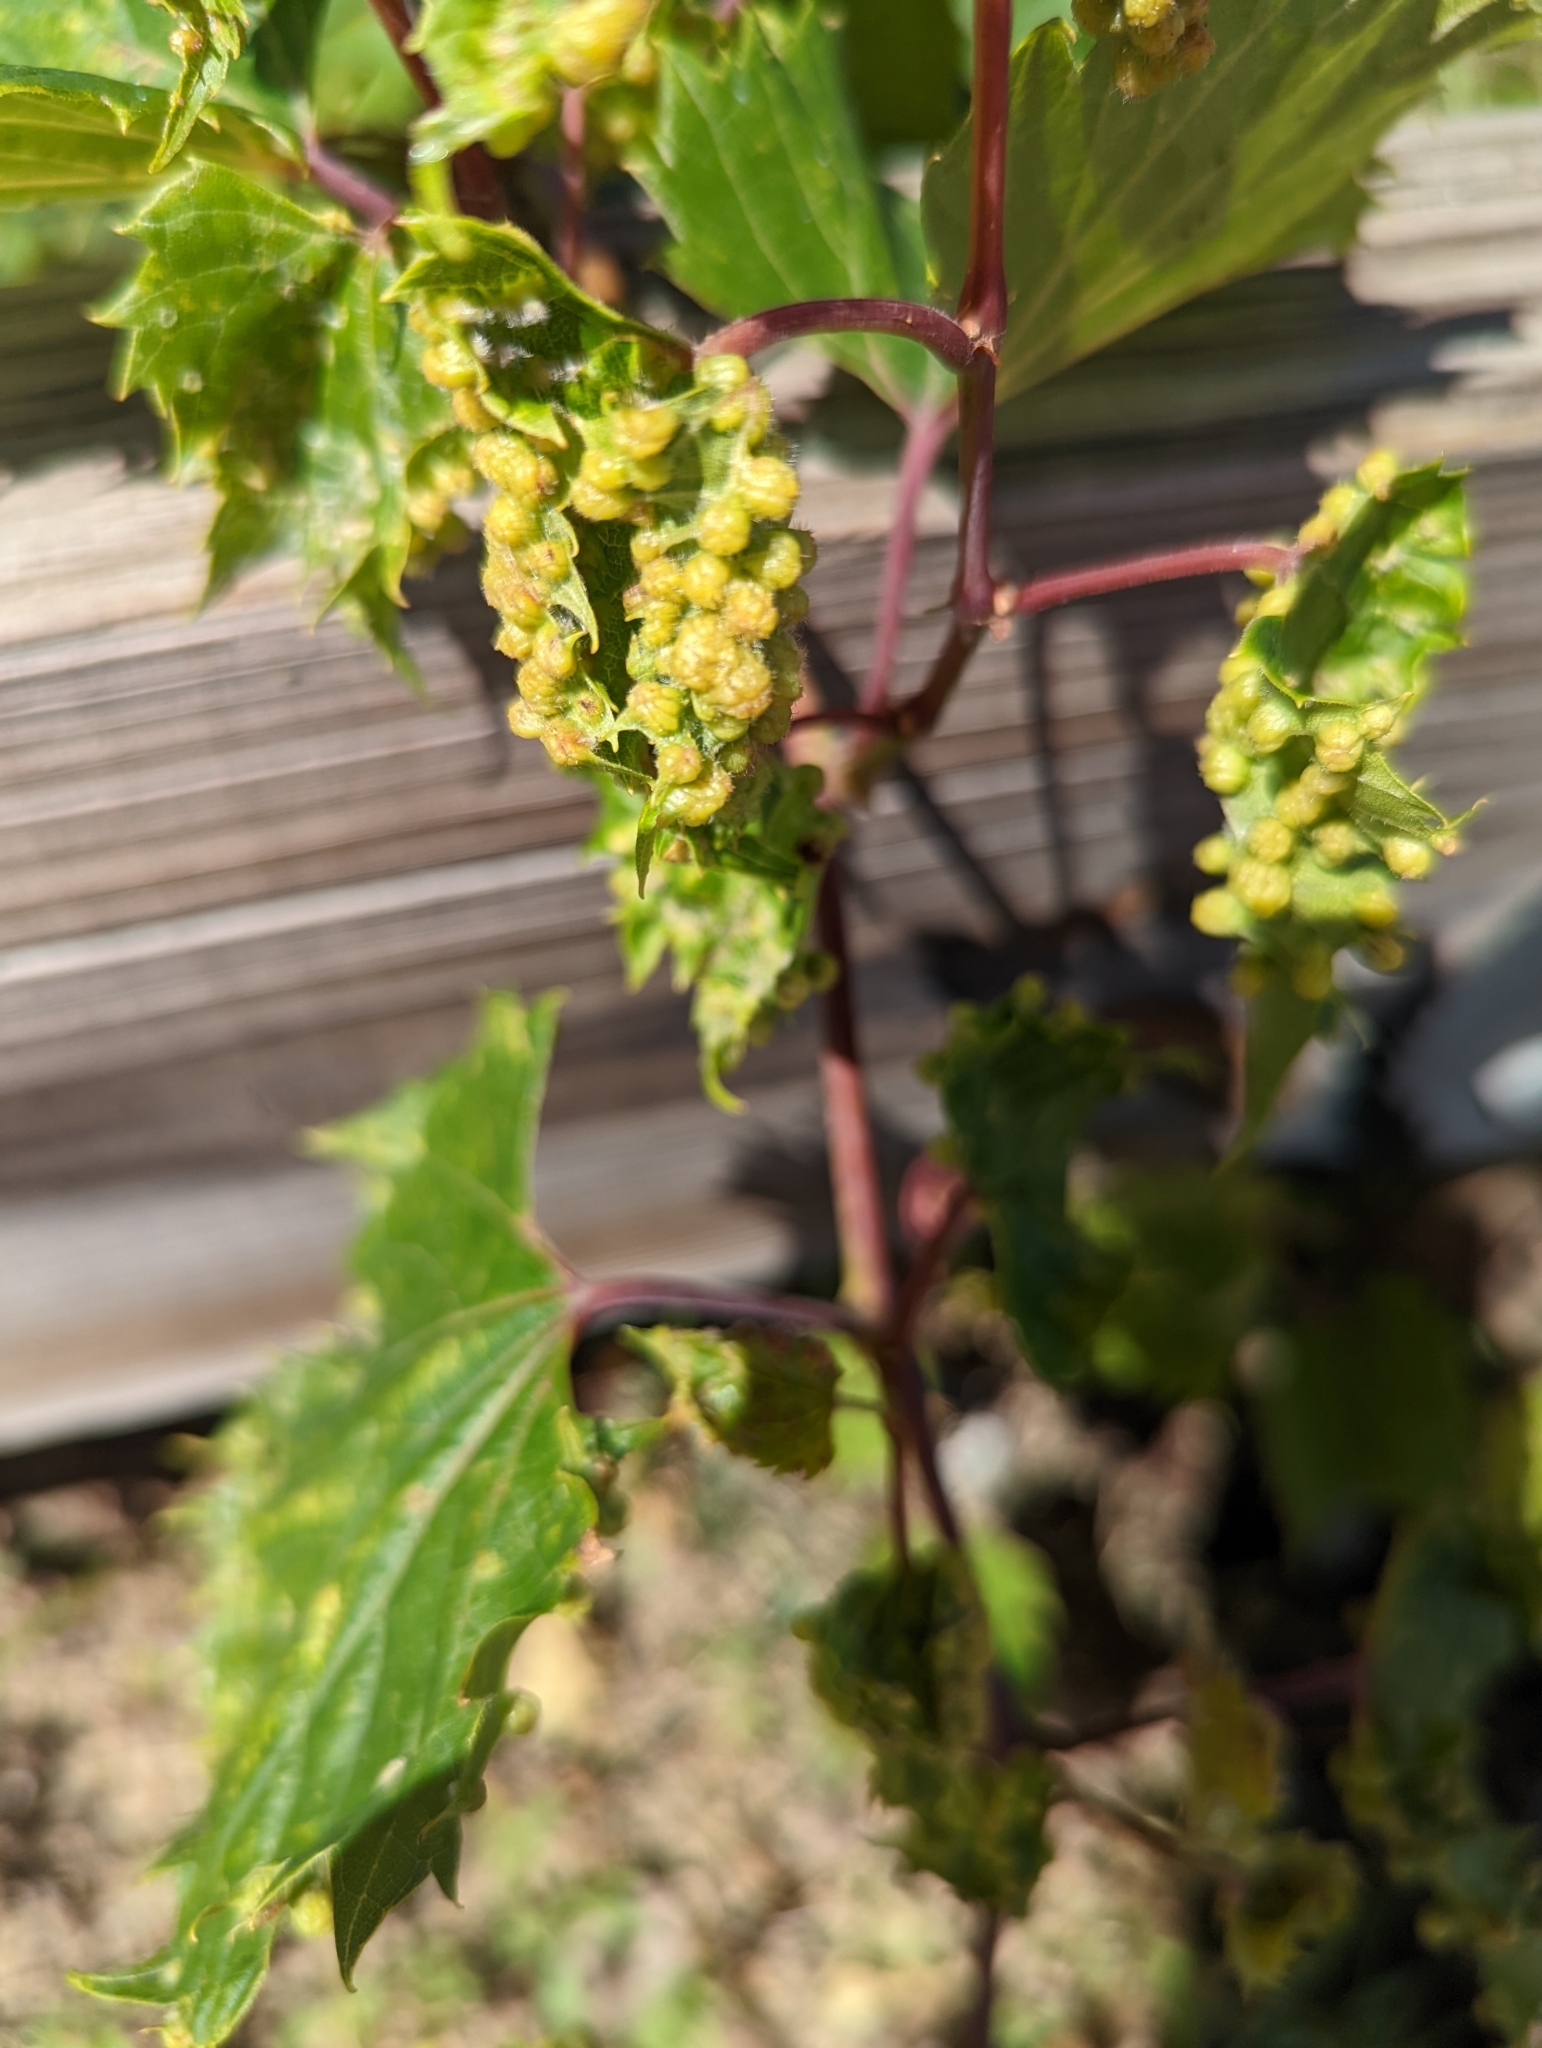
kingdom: Animalia
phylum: Arthropoda
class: Insecta
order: Hemiptera
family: Phylloxeridae
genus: Daktulosphaira
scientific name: Daktulosphaira vitifoliae
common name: Grape phylloxera
